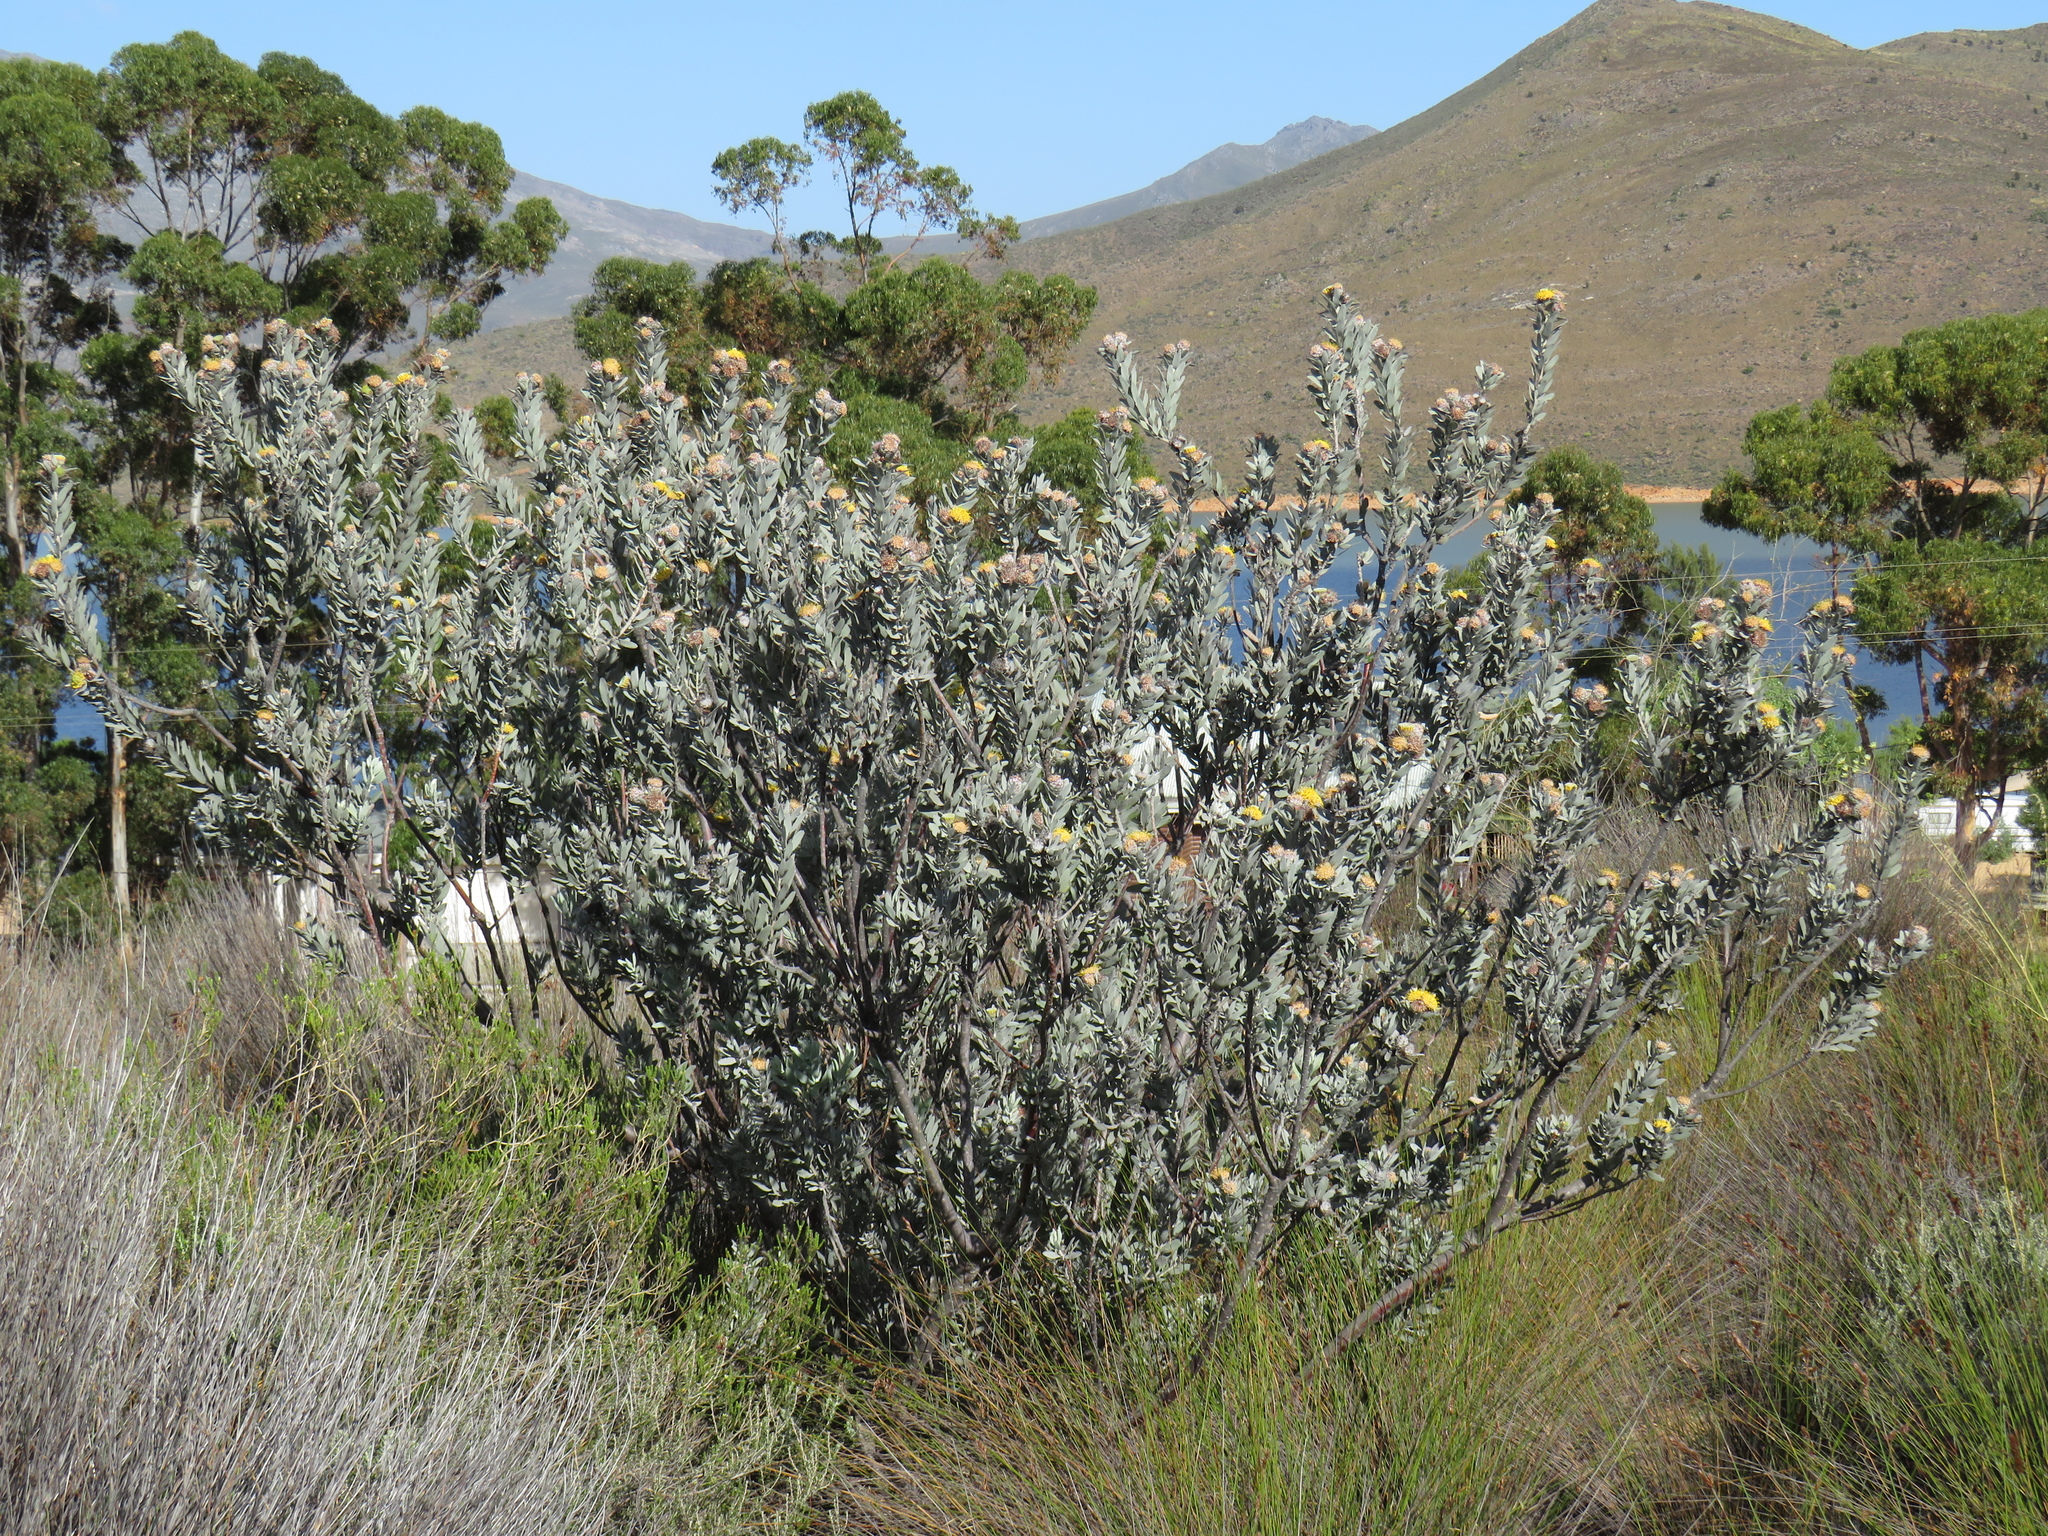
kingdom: Plantae
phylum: Tracheophyta
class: Magnoliopsida
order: Proteales
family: Proteaceae
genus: Leucospermum
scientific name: Leucospermum rodolentum
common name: Pincushion
